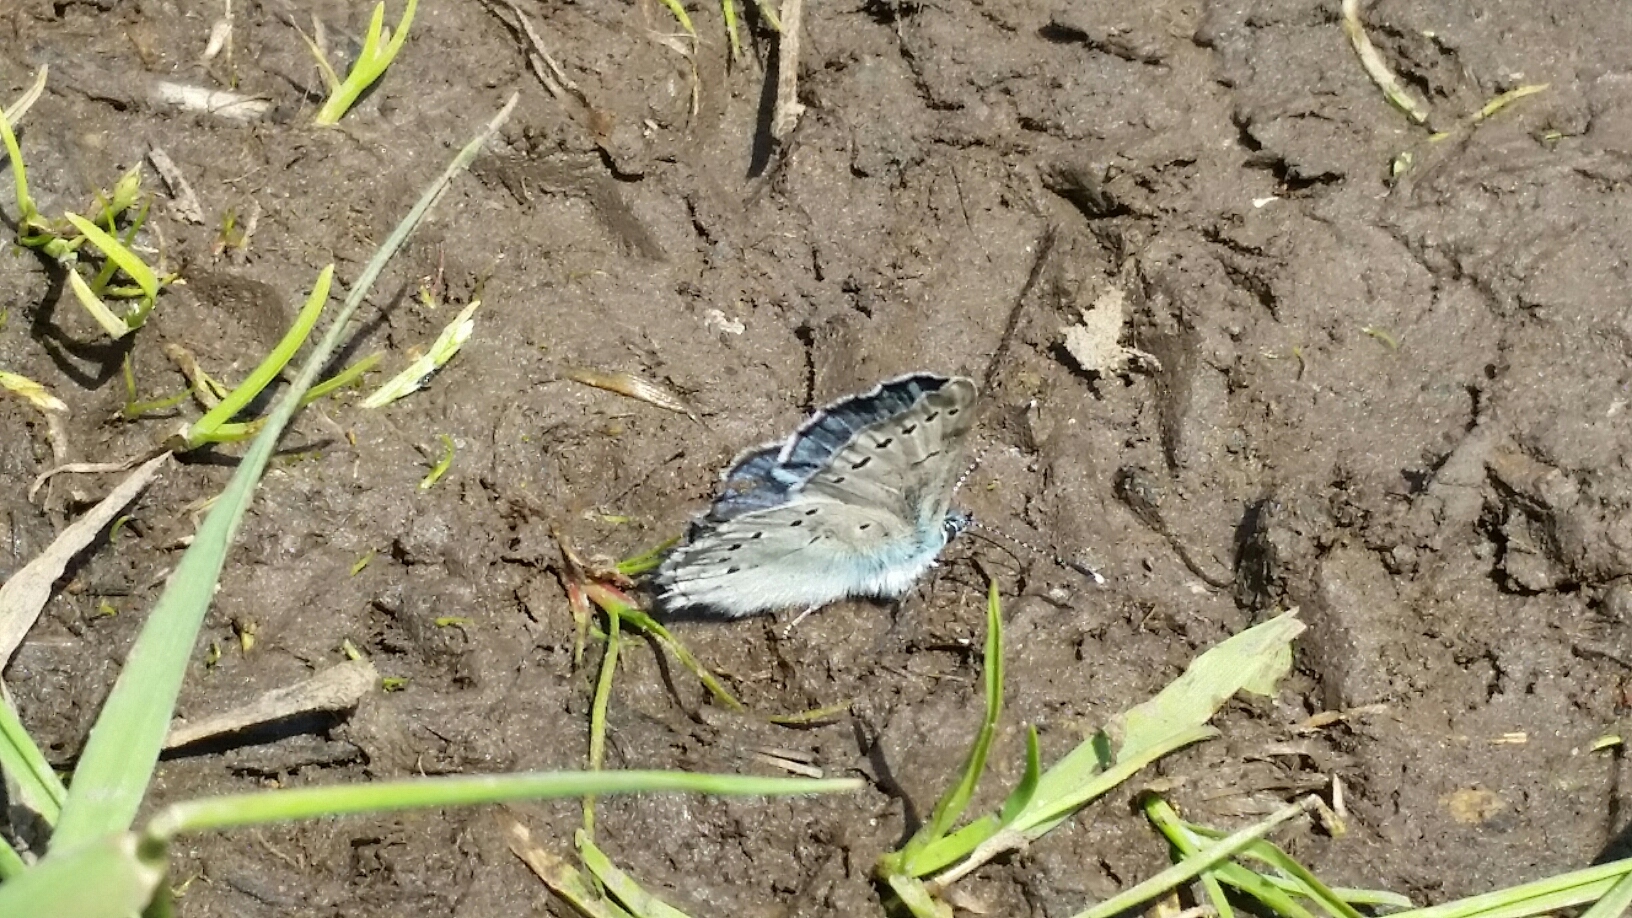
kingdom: Animalia
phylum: Arthropoda
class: Insecta
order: Lepidoptera
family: Lycaenidae
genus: Glaucopsyche
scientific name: Glaucopsyche lygdamus
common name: Silvery blue
